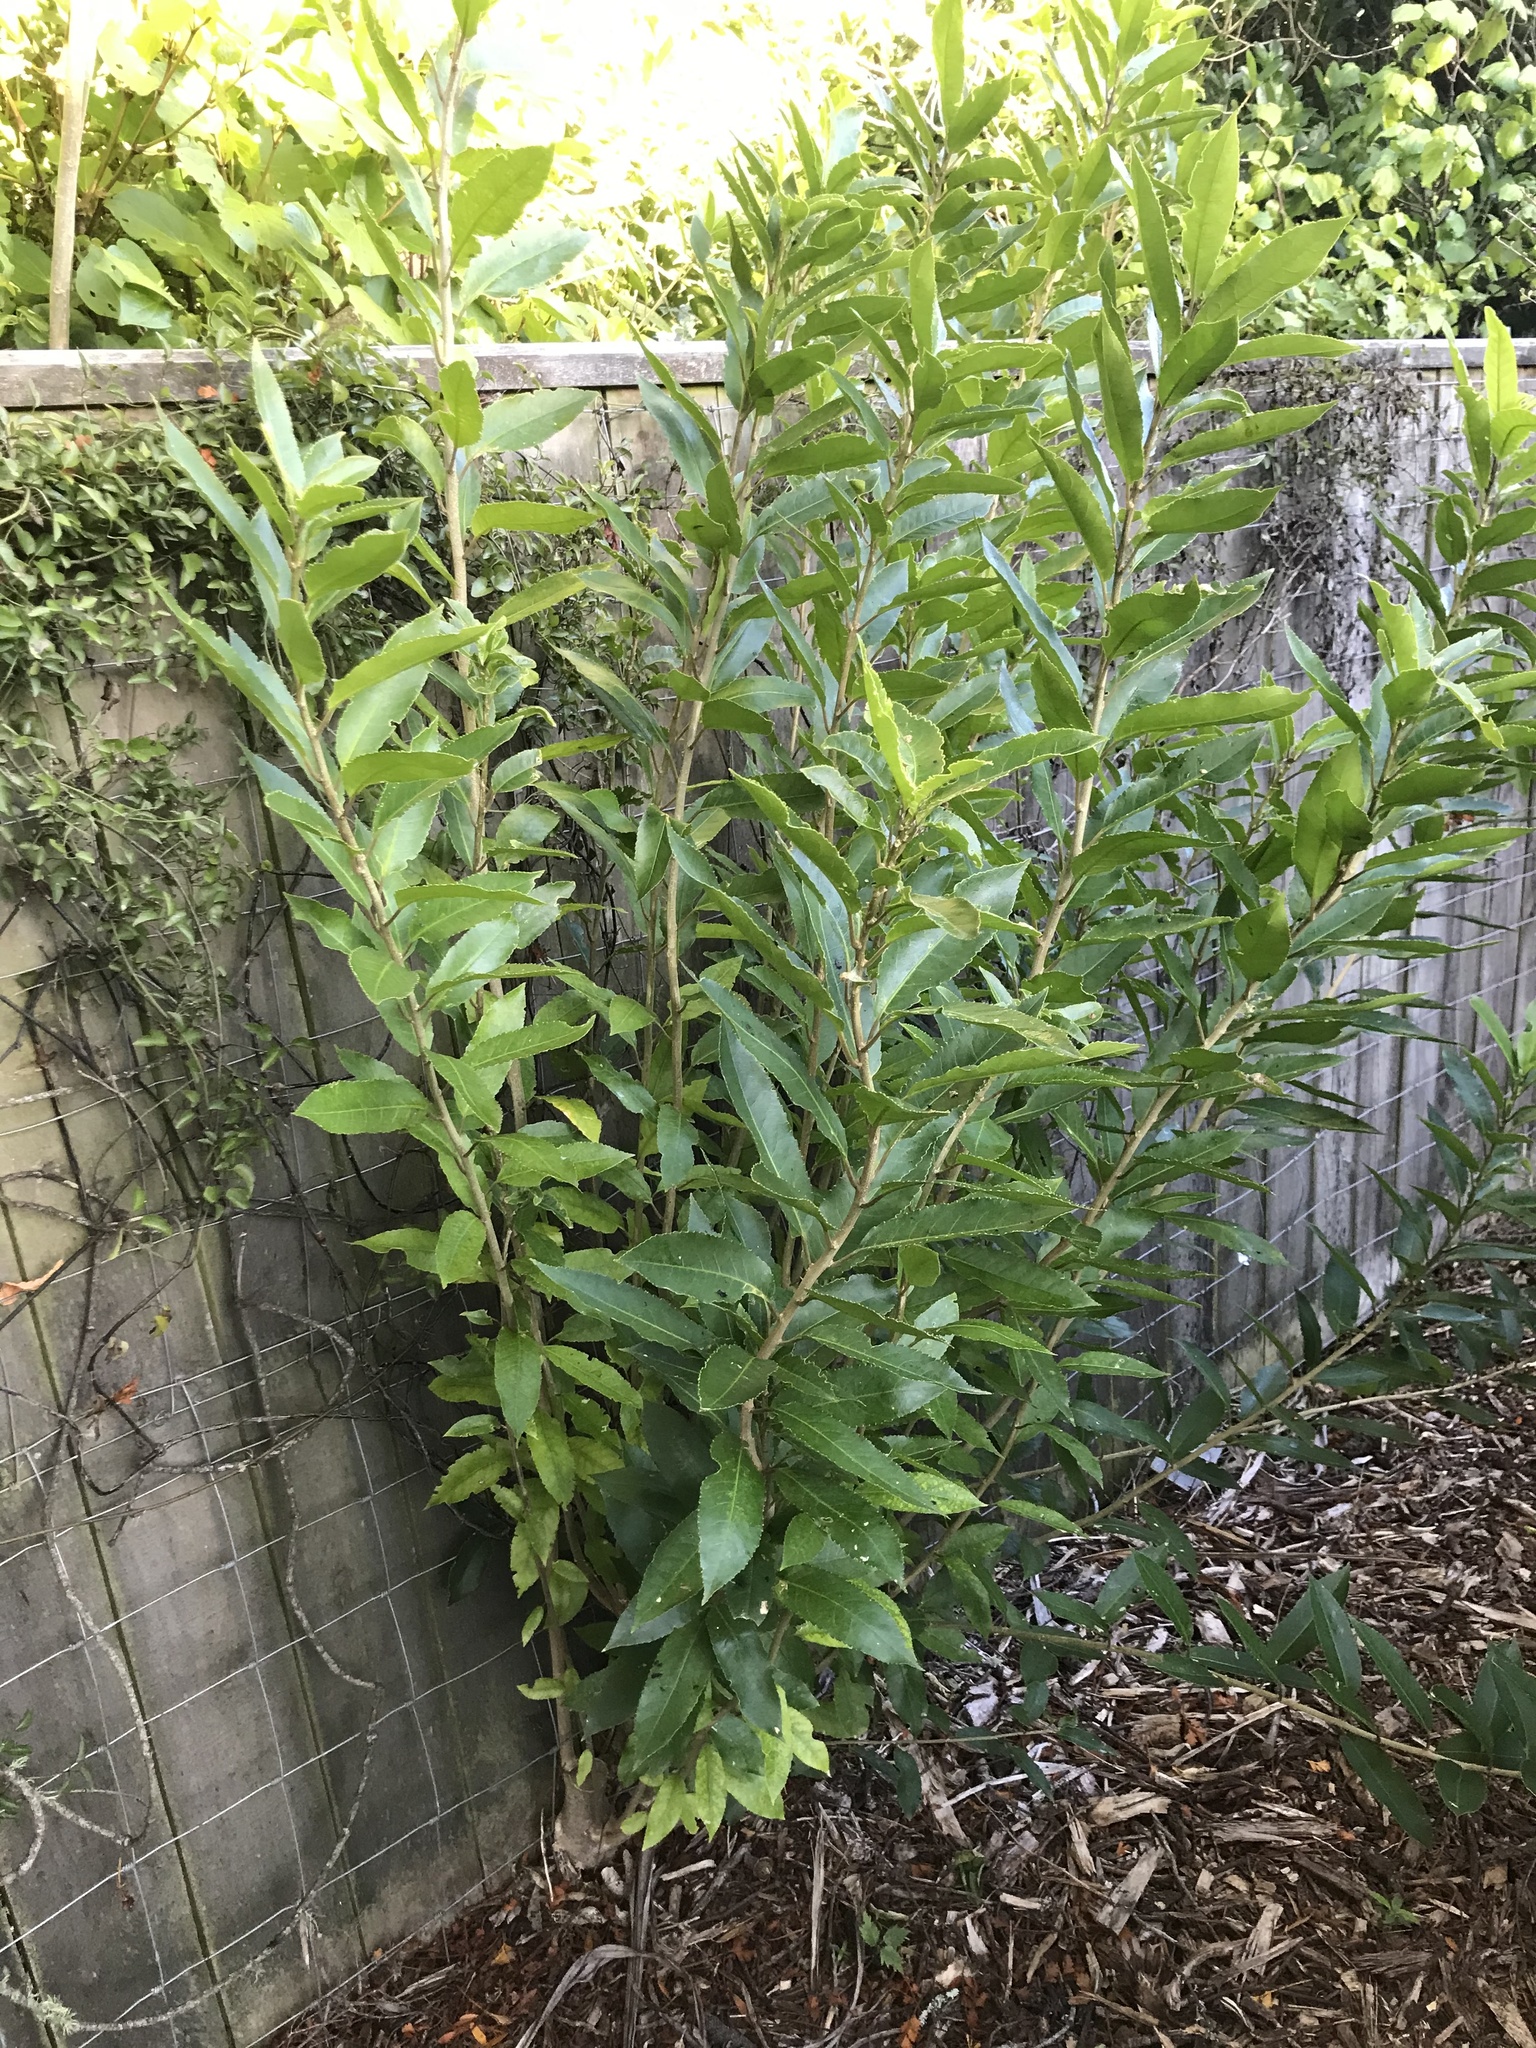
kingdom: Plantae
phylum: Tracheophyta
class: Magnoliopsida
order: Malpighiales
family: Violaceae
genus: Melicytus
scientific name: Melicytus ramiflorus
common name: Mahoe
